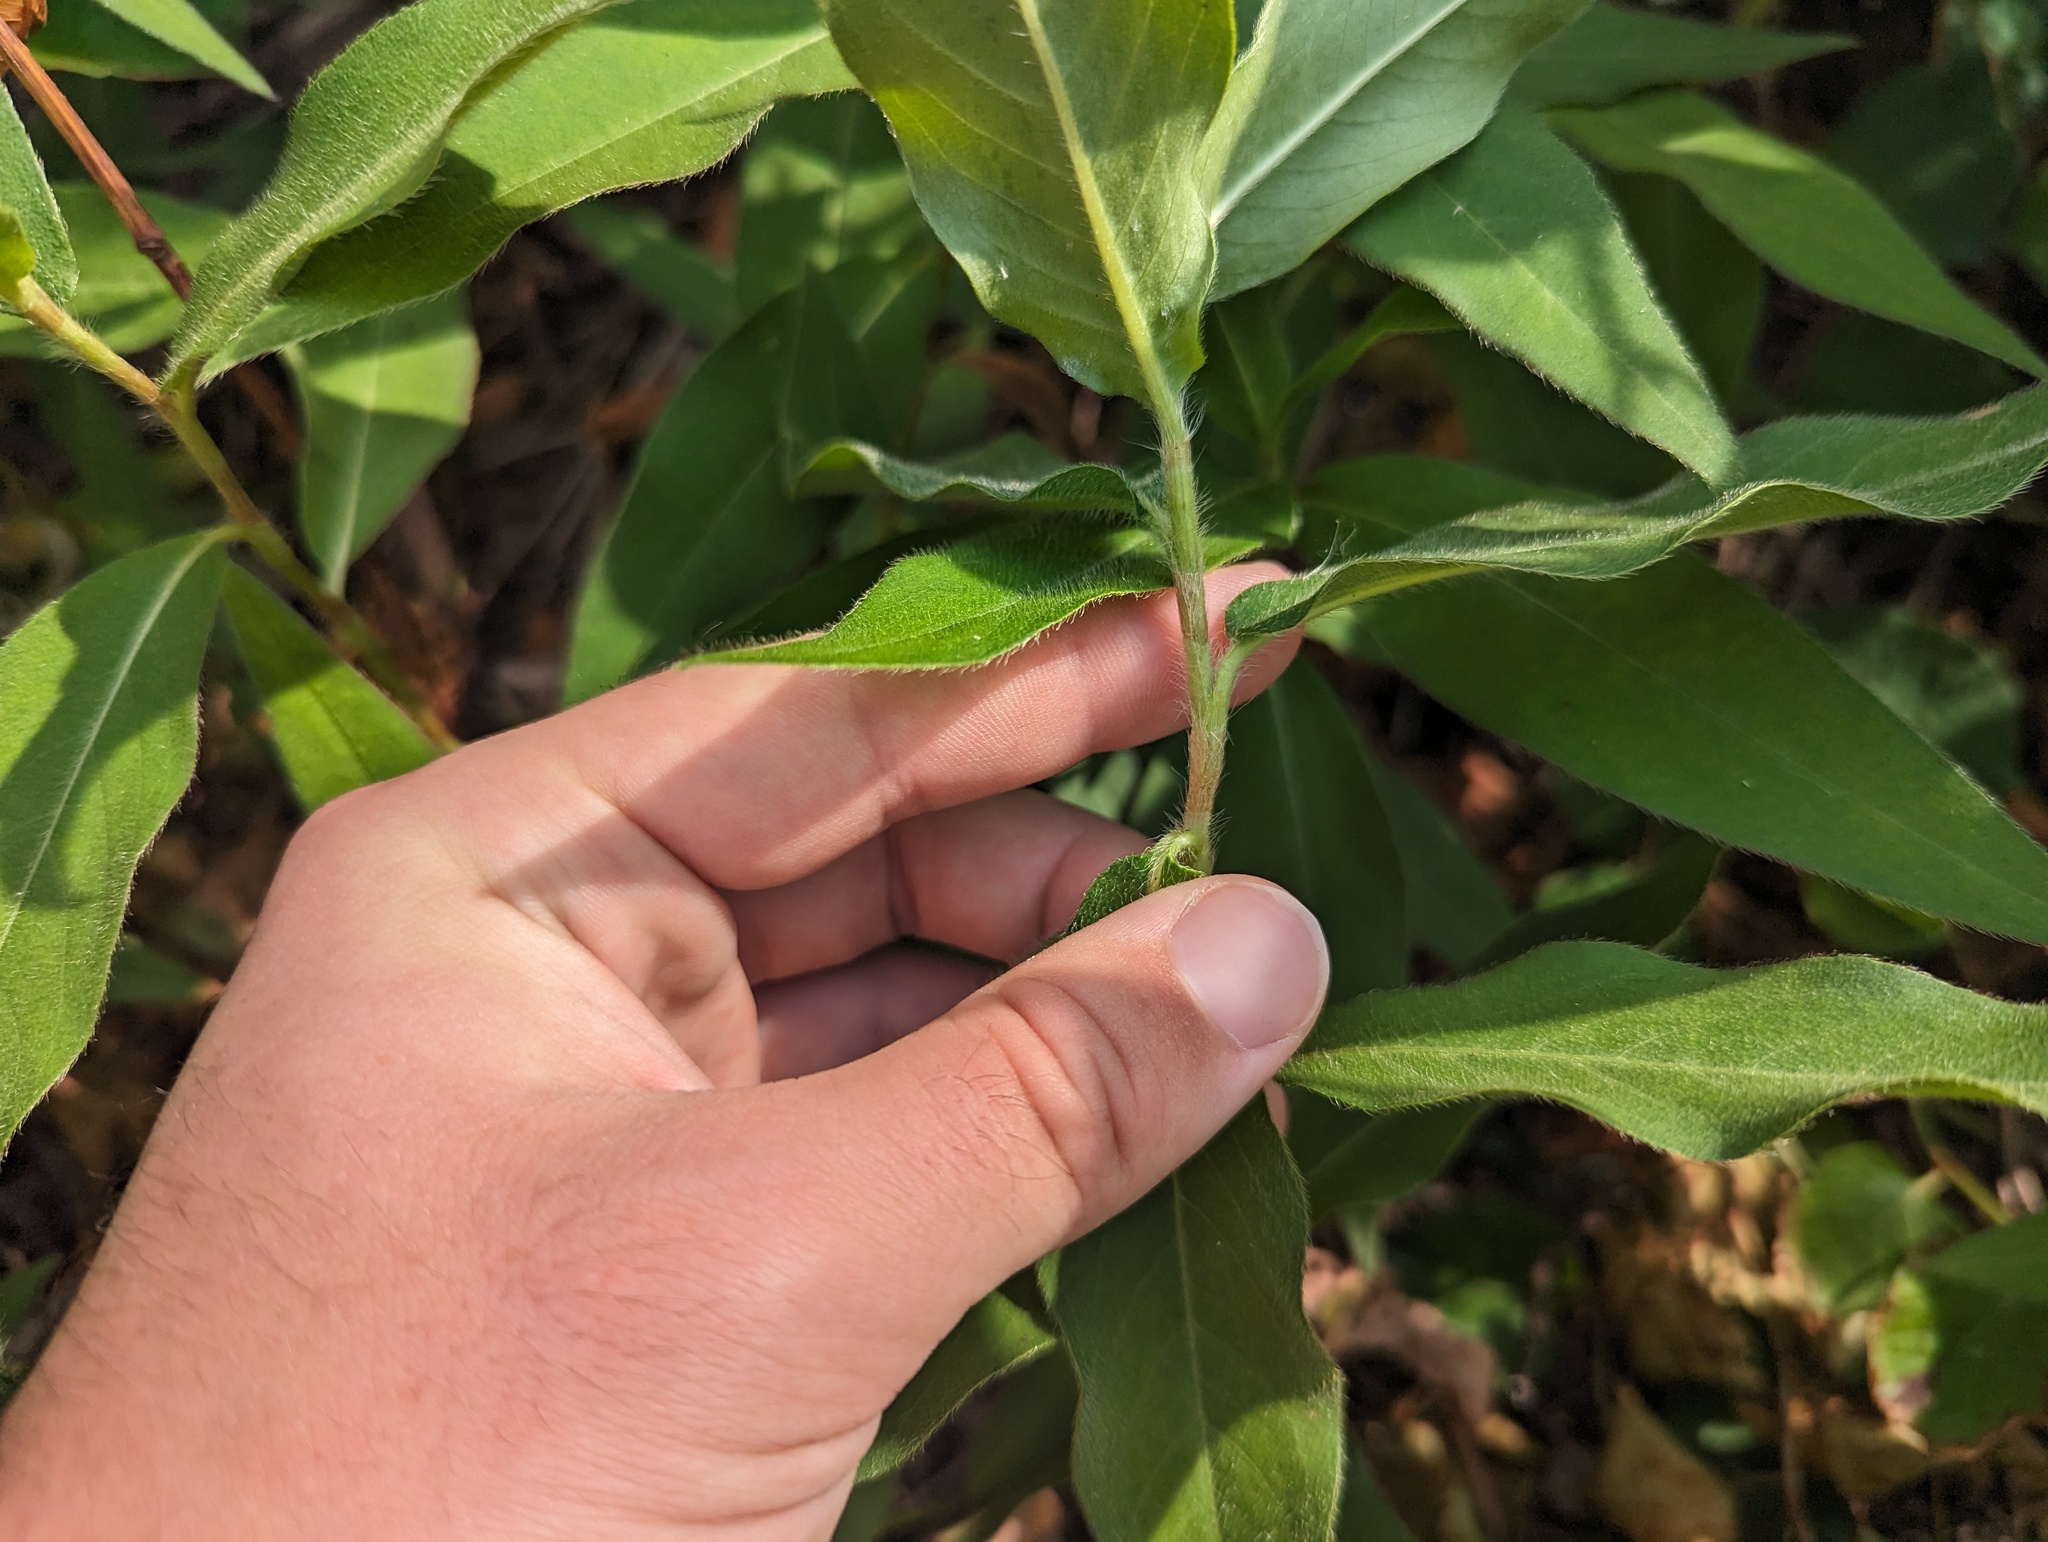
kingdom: Plantae
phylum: Tracheophyta
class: Magnoliopsida
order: Caryophyllales
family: Polygonaceae
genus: Persicaria
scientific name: Persicaria amphibia
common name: Amphibious bistort
